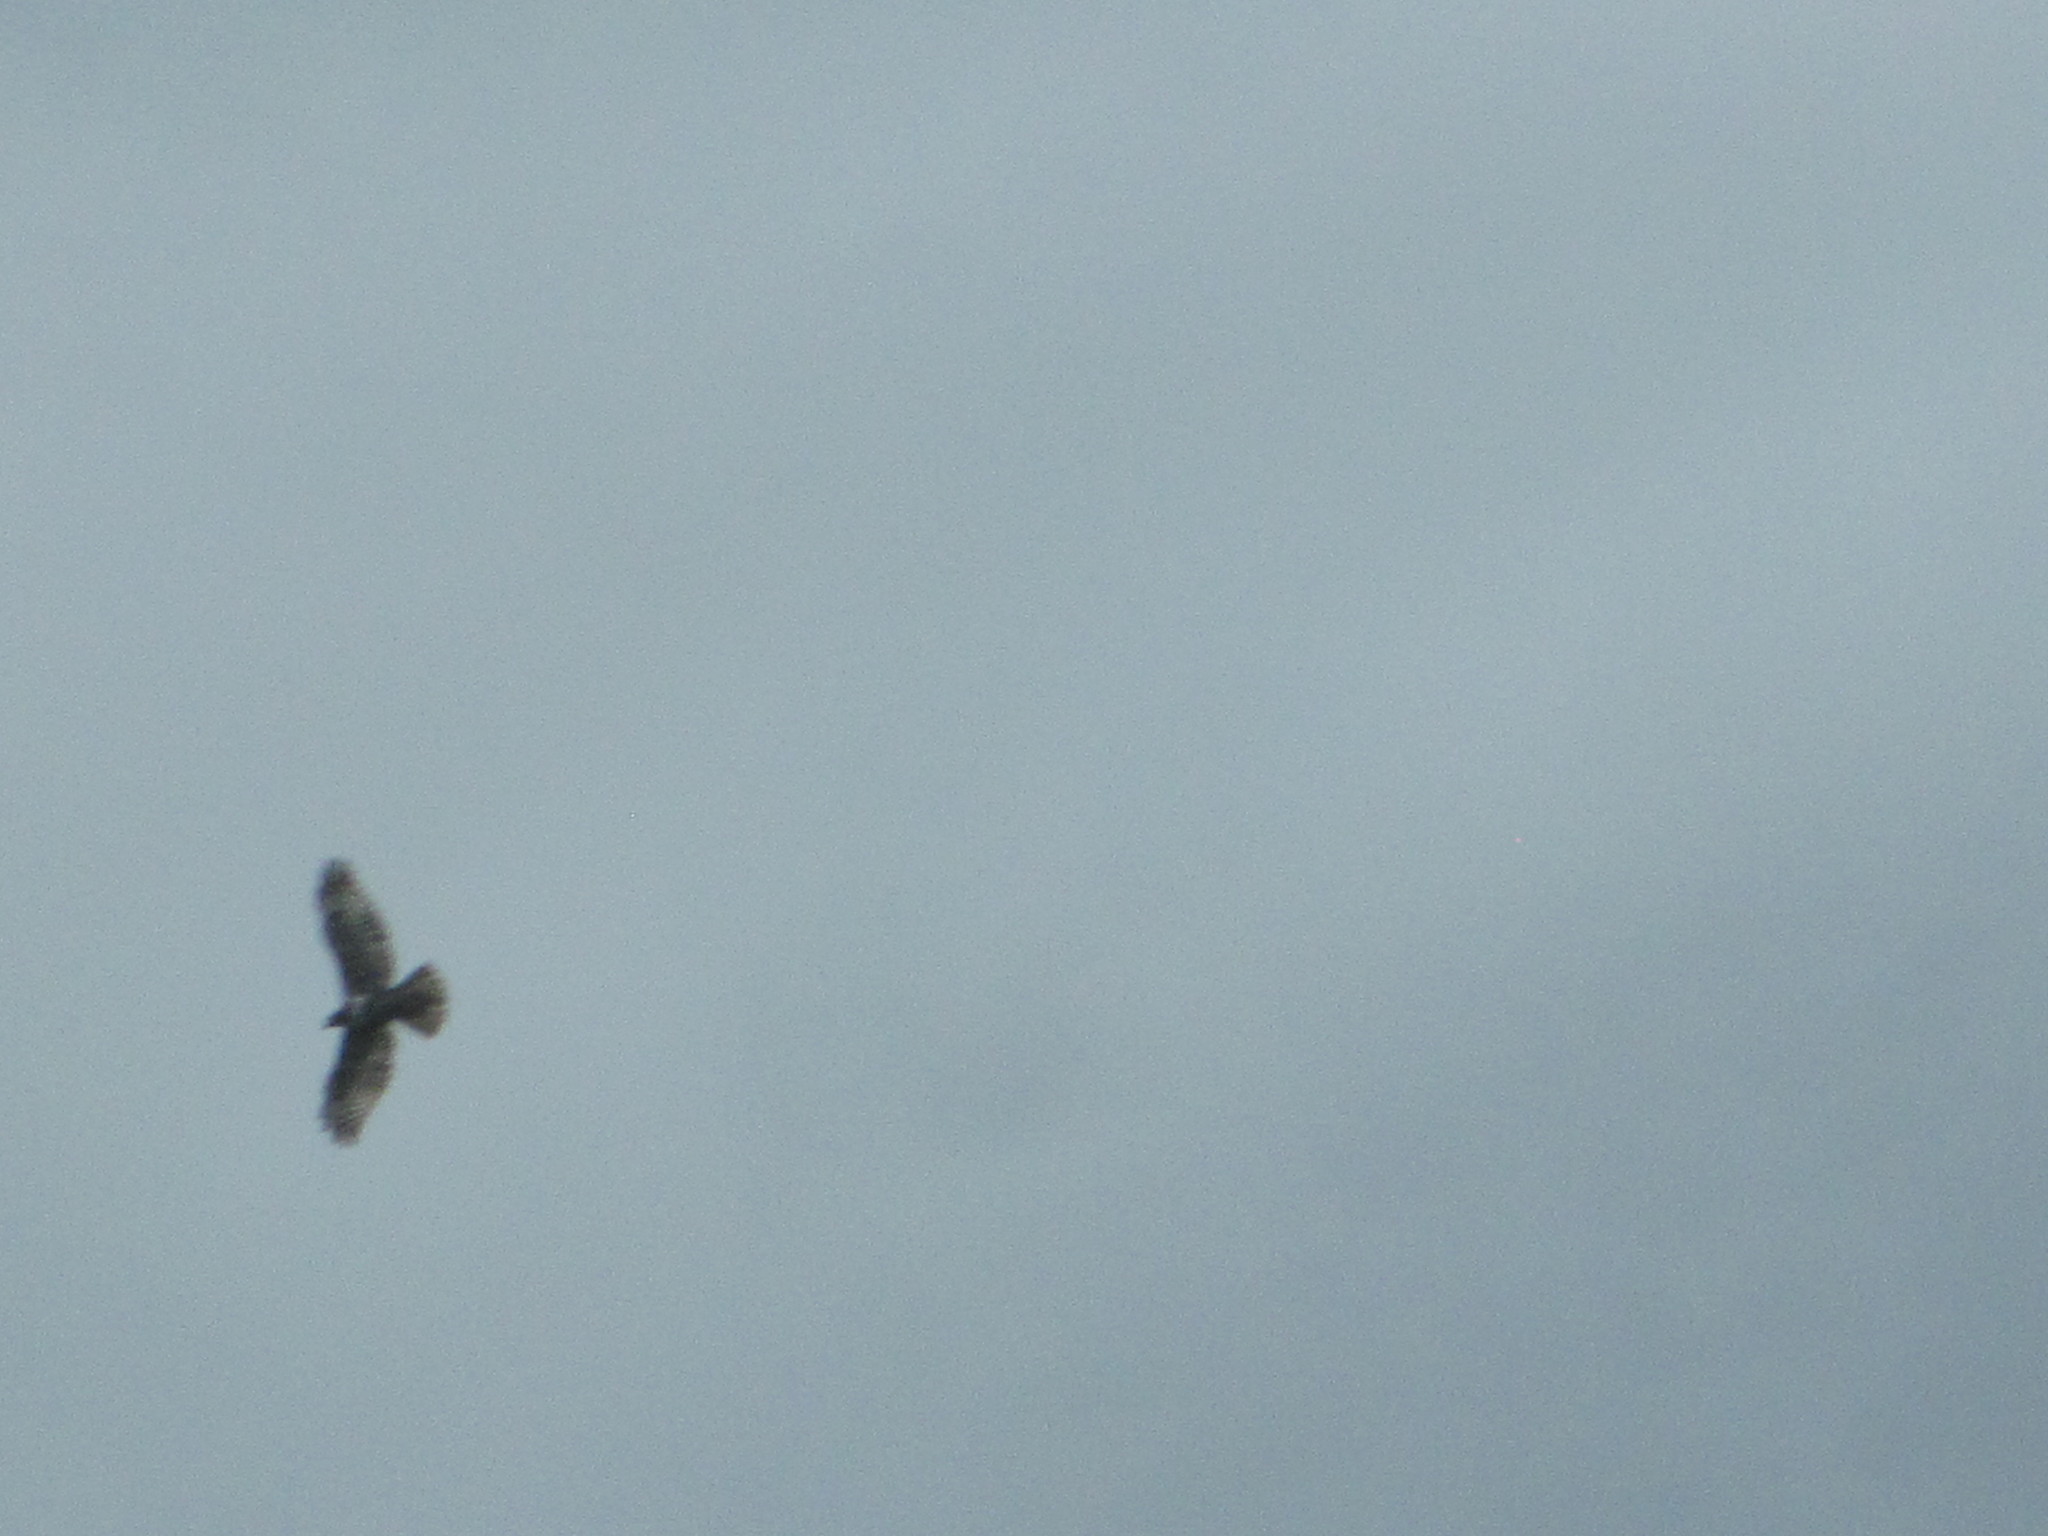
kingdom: Animalia
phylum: Chordata
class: Aves
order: Accipitriformes
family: Accipitridae
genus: Buteo
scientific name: Buteo jamaicensis
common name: Red-tailed hawk
